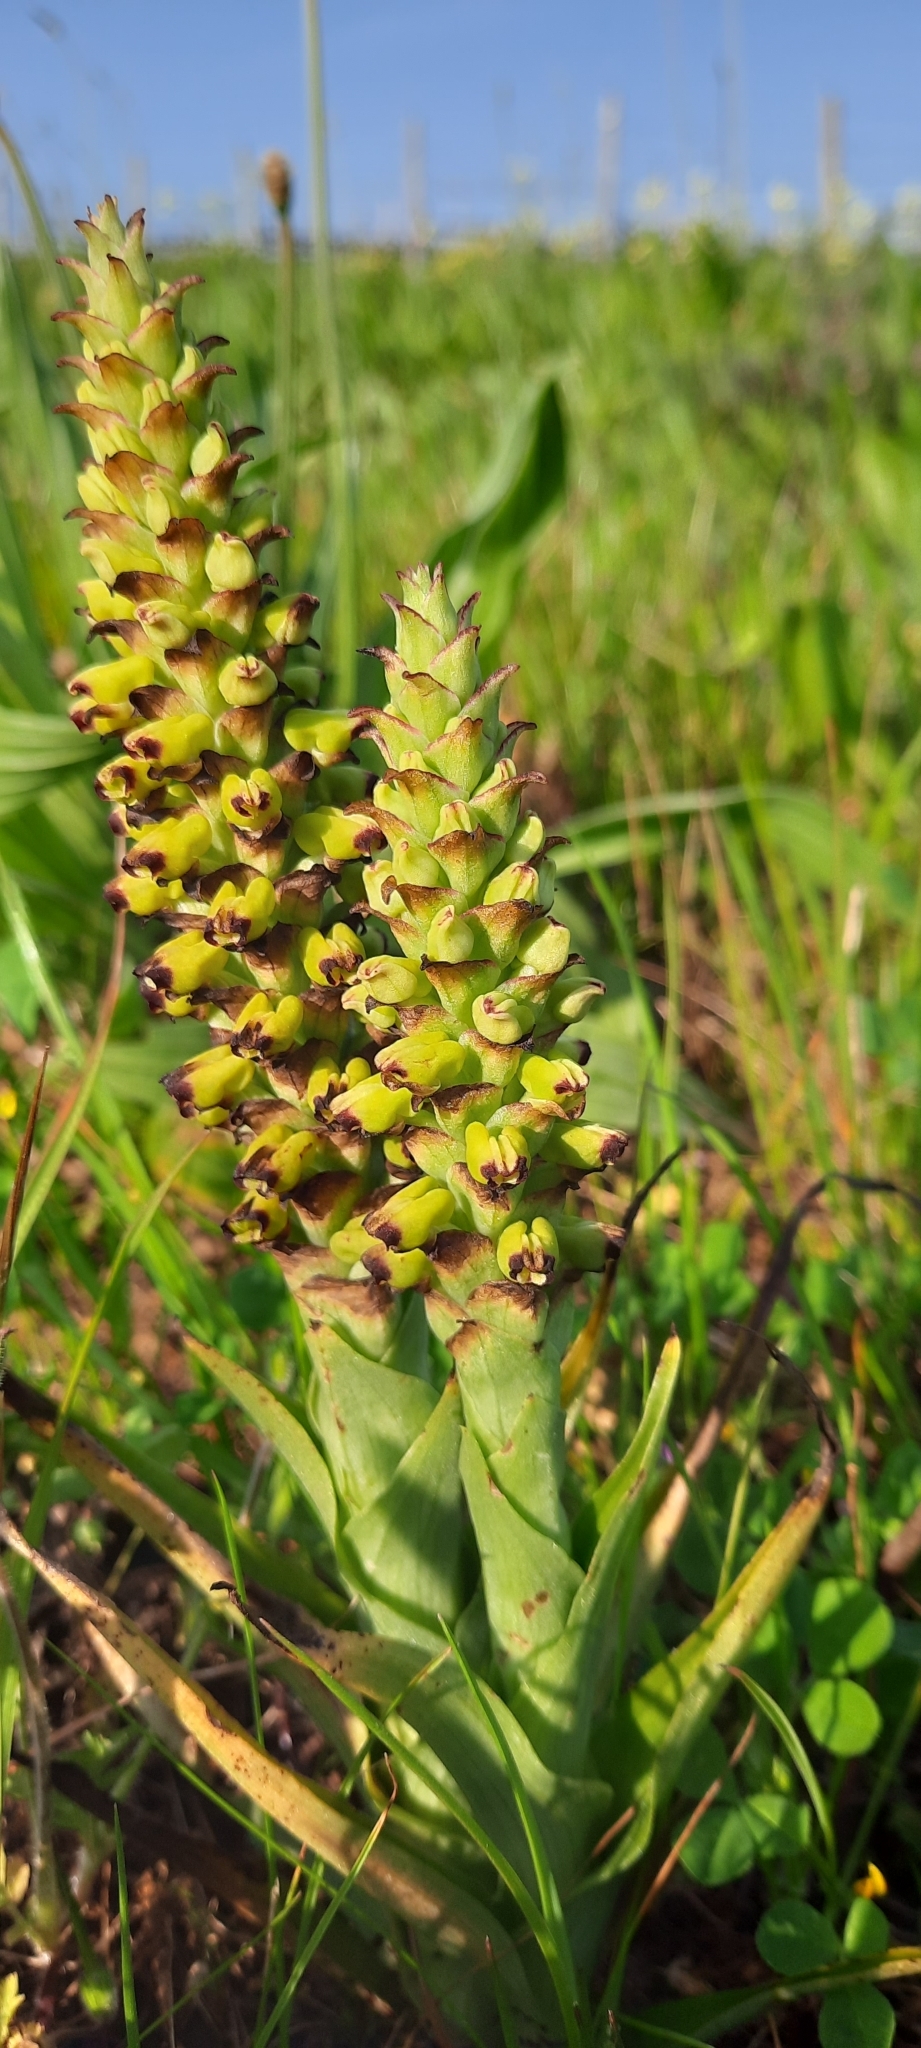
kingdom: Plantae
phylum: Tracheophyta
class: Liliopsida
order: Asparagales
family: Orchidaceae
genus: Corycium
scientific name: Corycium orobanchoides
